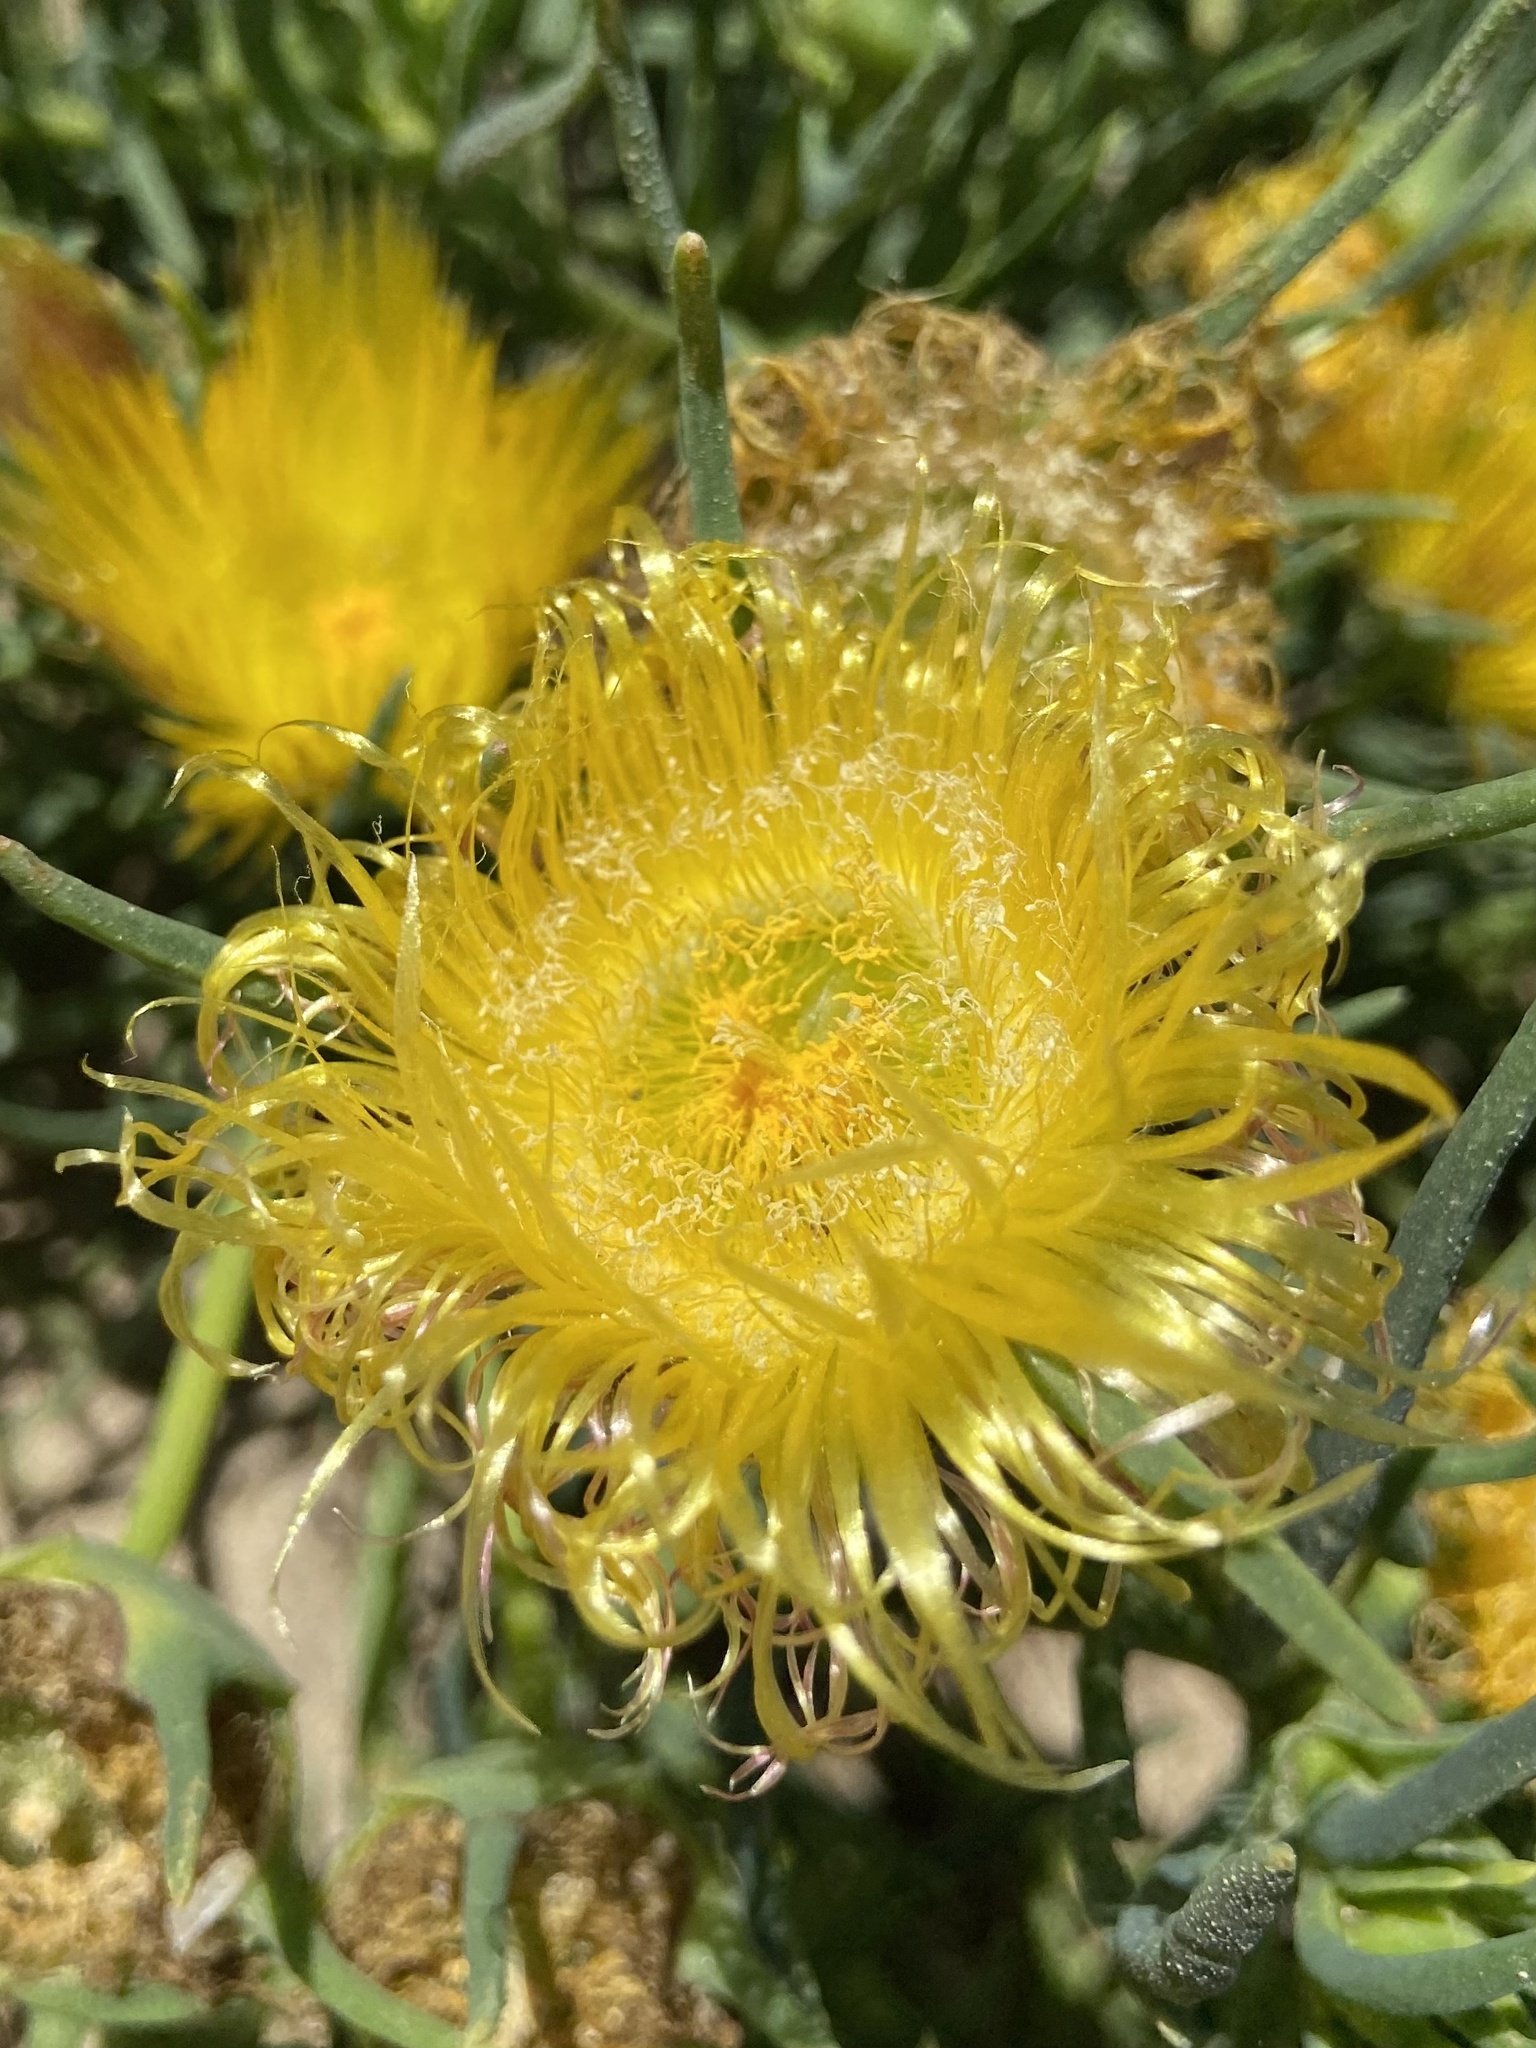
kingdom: Plantae
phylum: Tracheophyta
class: Magnoliopsida
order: Caryophyllales
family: Aizoaceae
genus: Conicosia
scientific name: Conicosia pugioniformis
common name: Narrow-leaved iceplant
